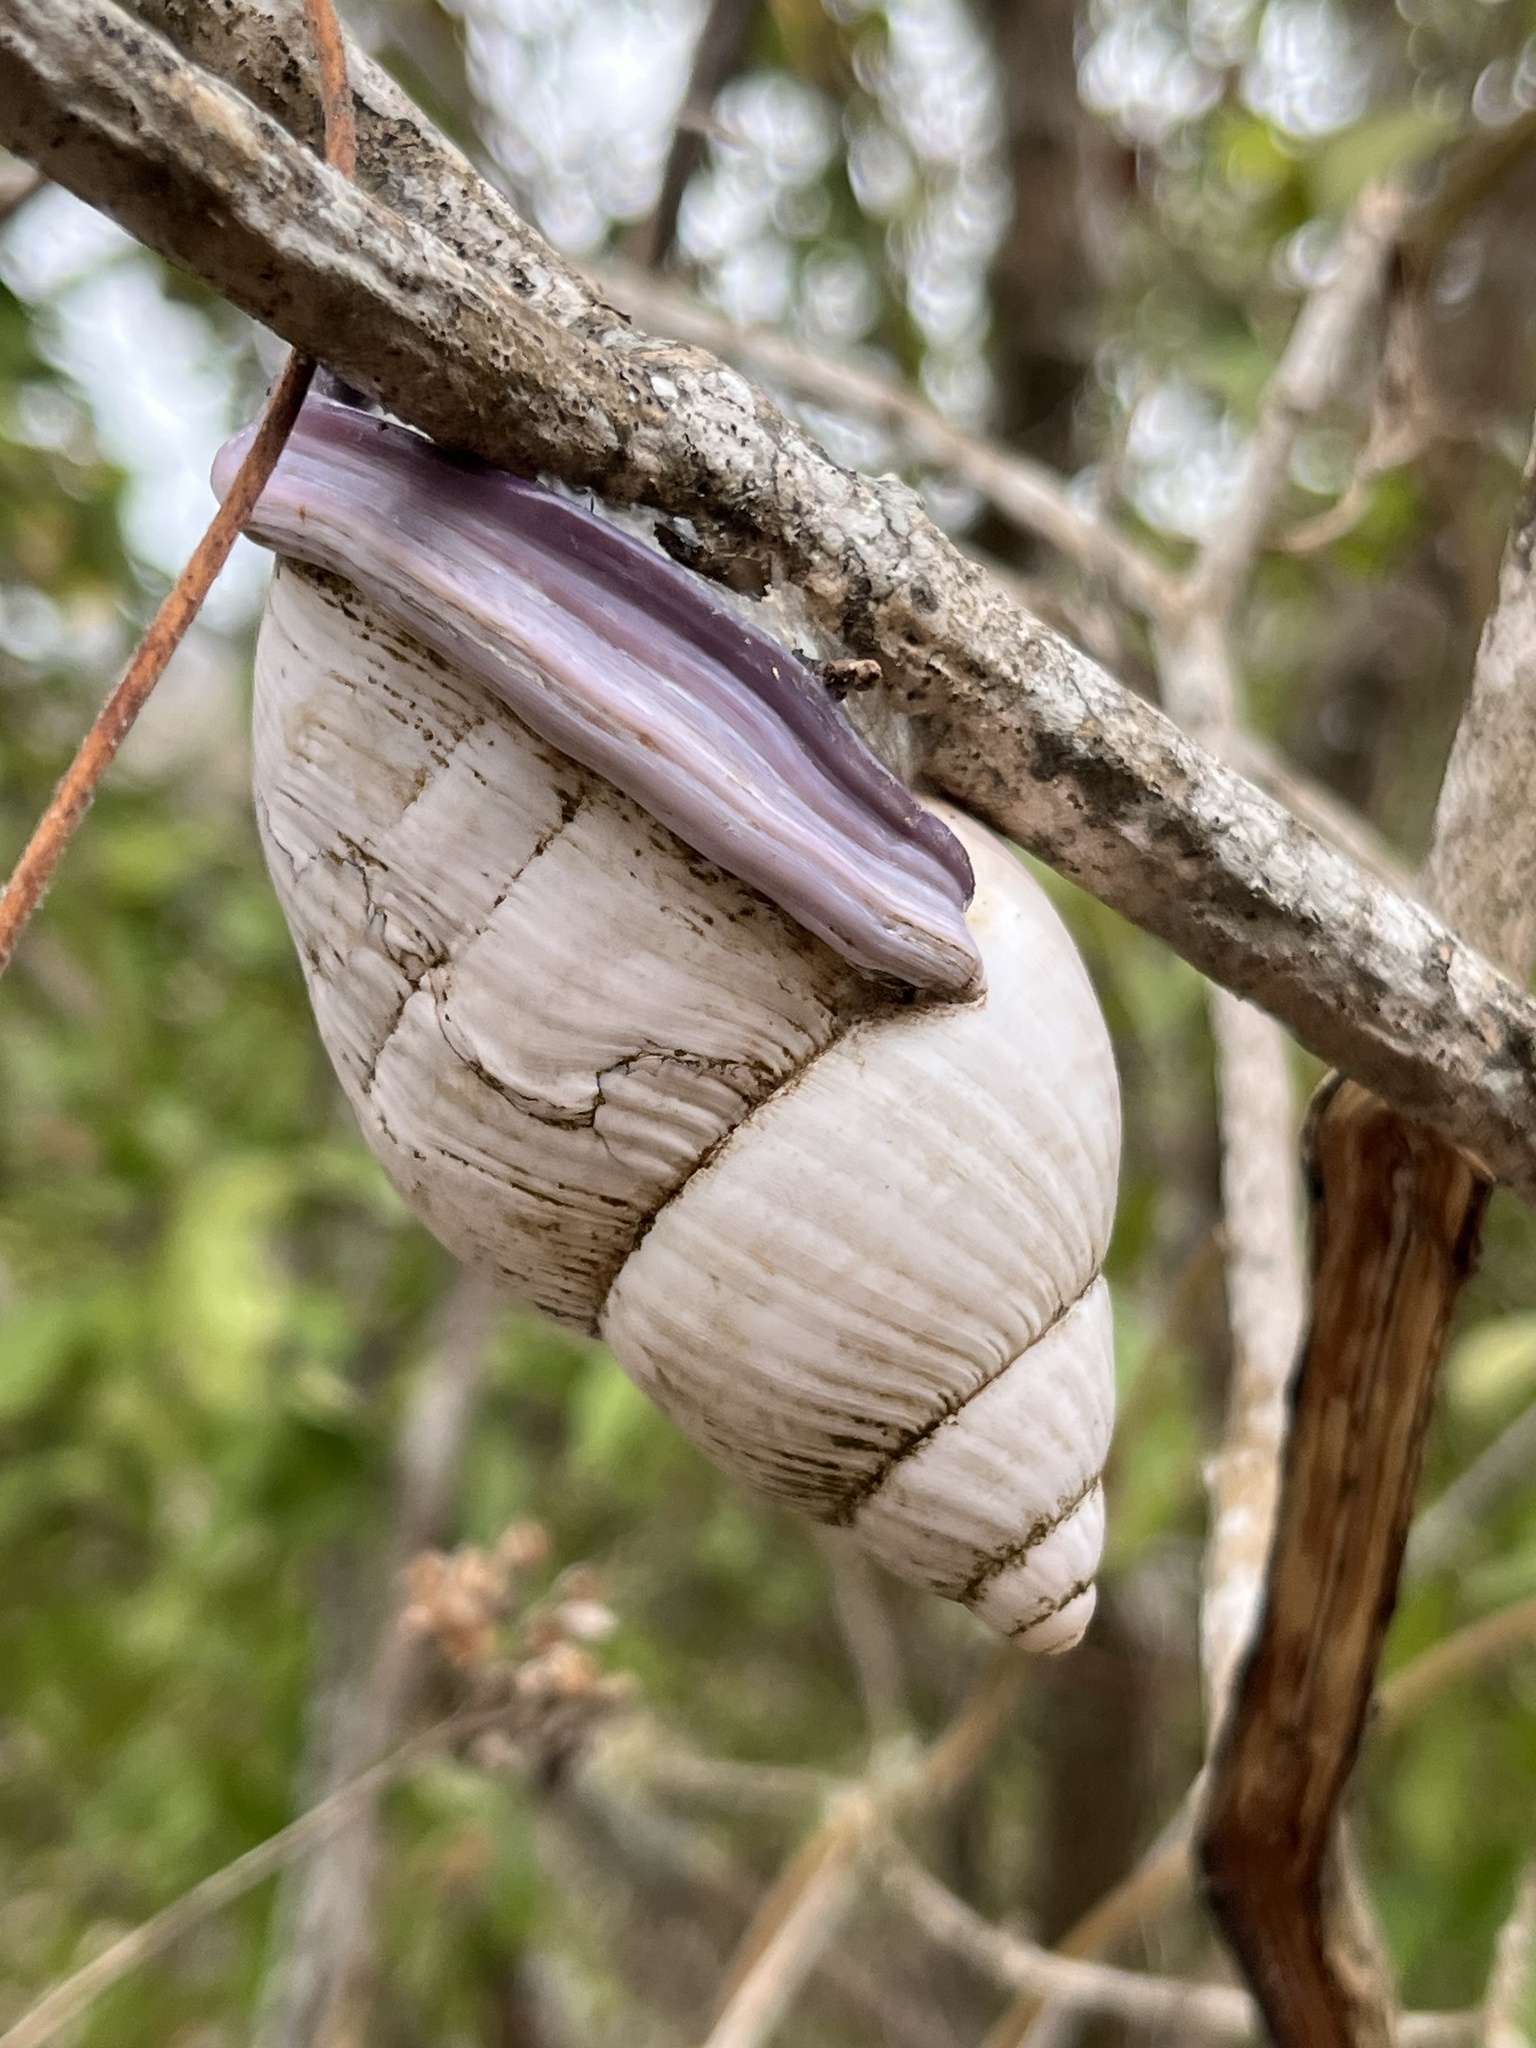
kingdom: Animalia
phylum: Mollusca
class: Gastropoda
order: Stylommatophora
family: Orthalicidae
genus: Porphyrobaphe
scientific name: Porphyrobaphe iostoma
